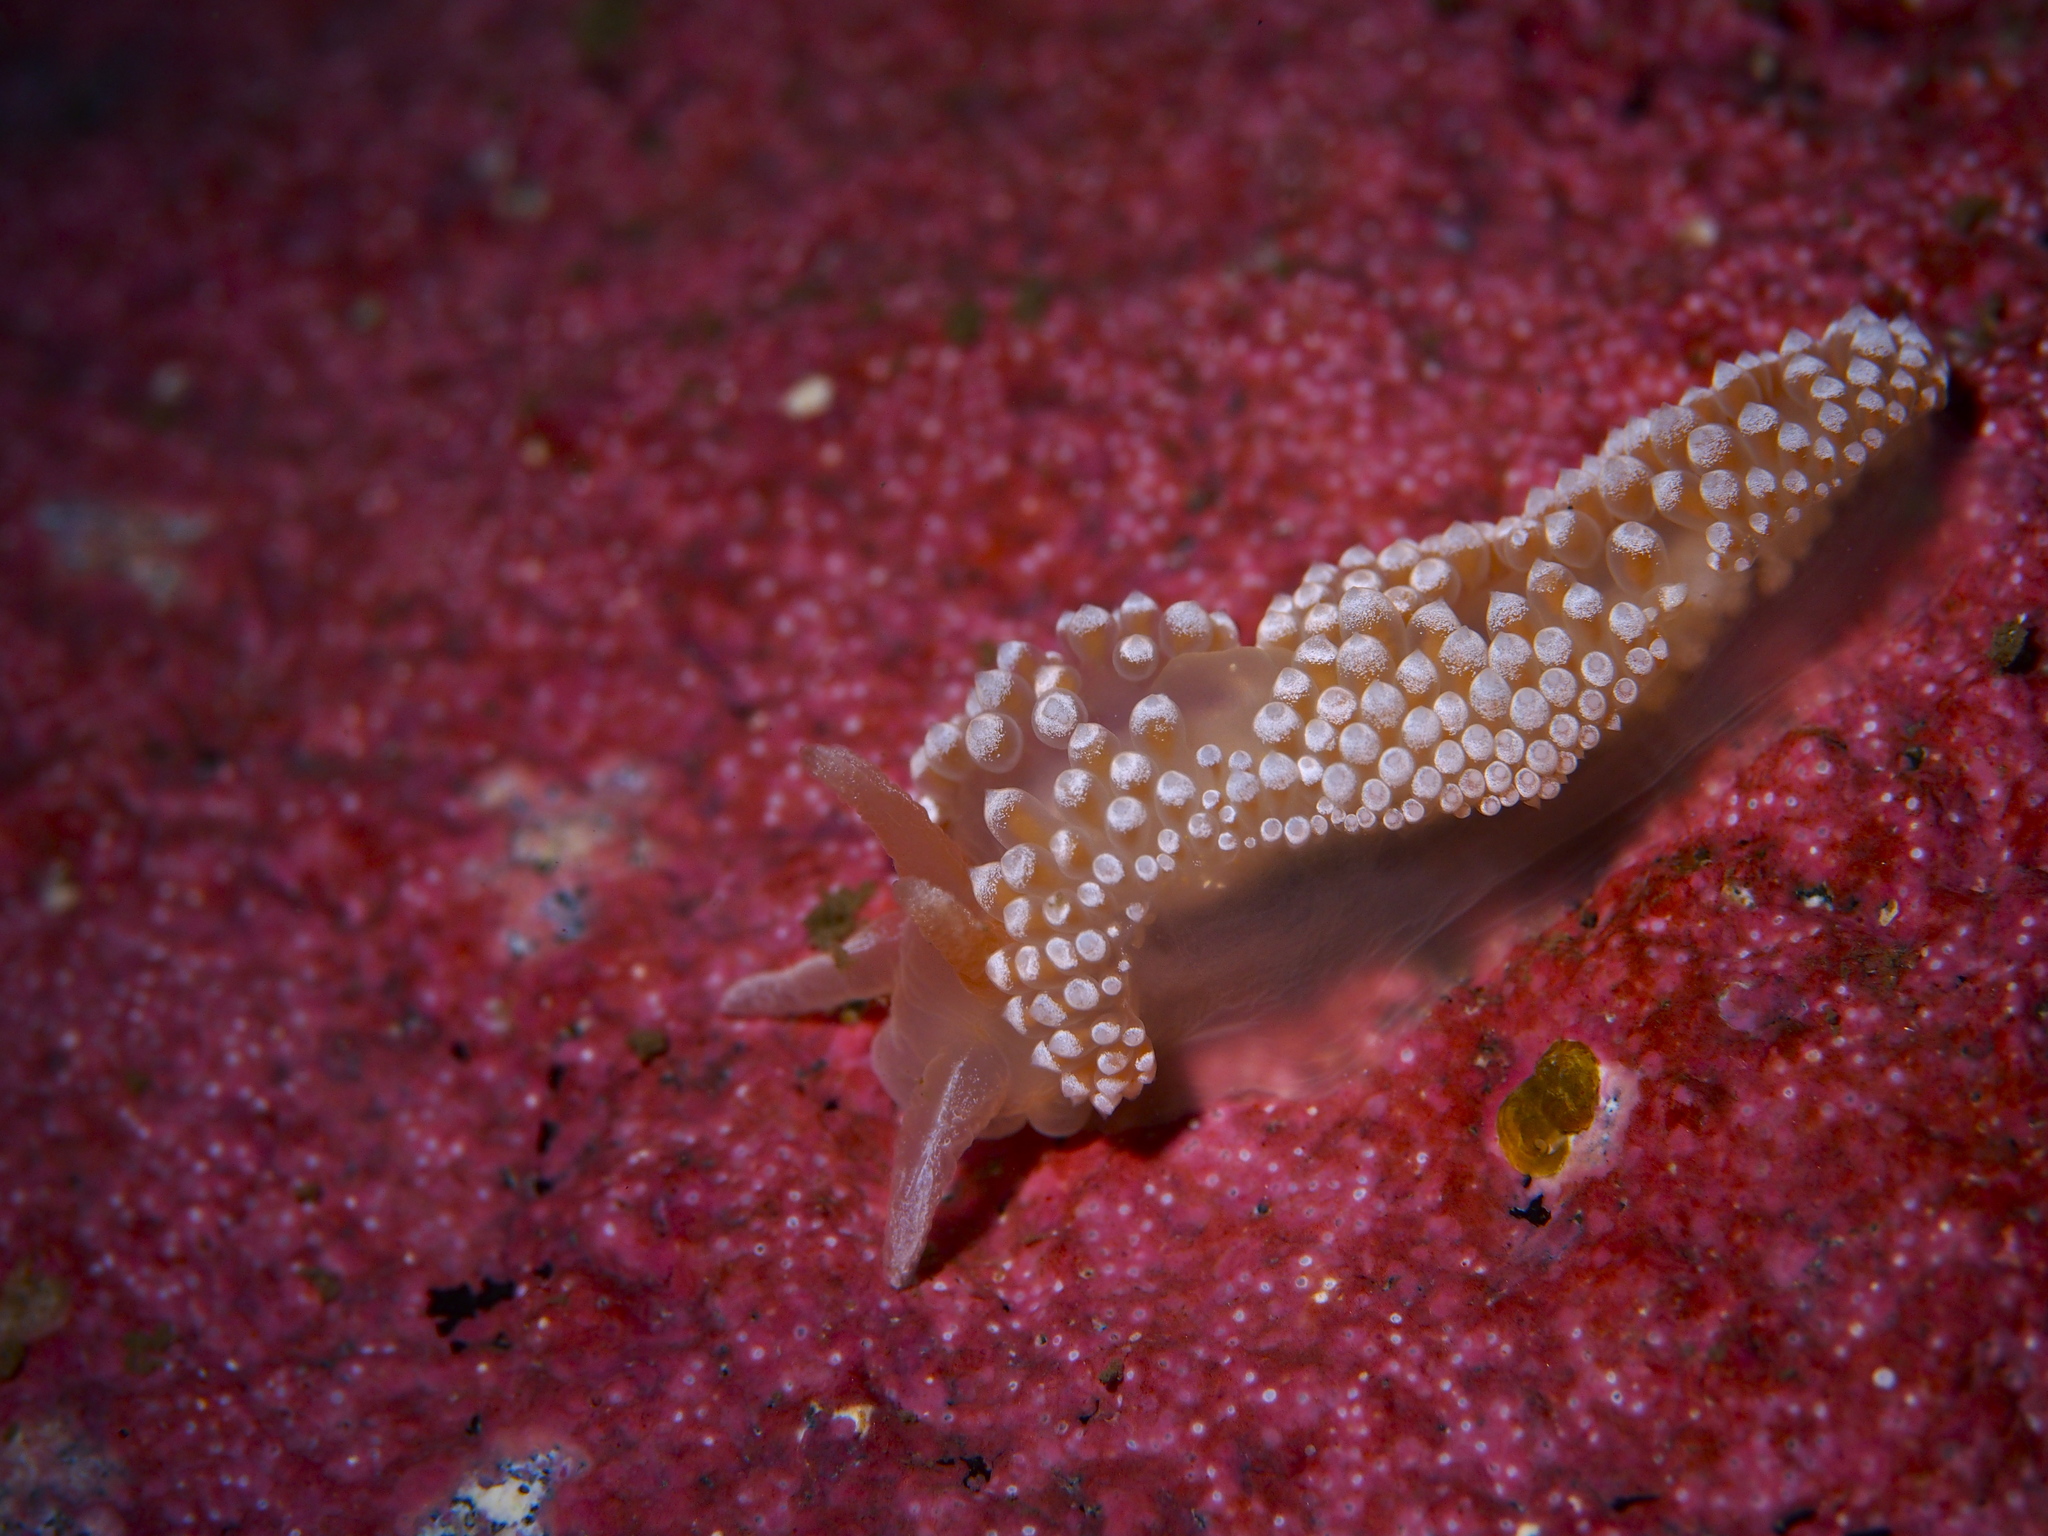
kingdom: Animalia
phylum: Mollusca
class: Gastropoda
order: Nudibranchia
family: Coryphellidae
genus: Coryphella
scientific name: Coryphella verrucosa
